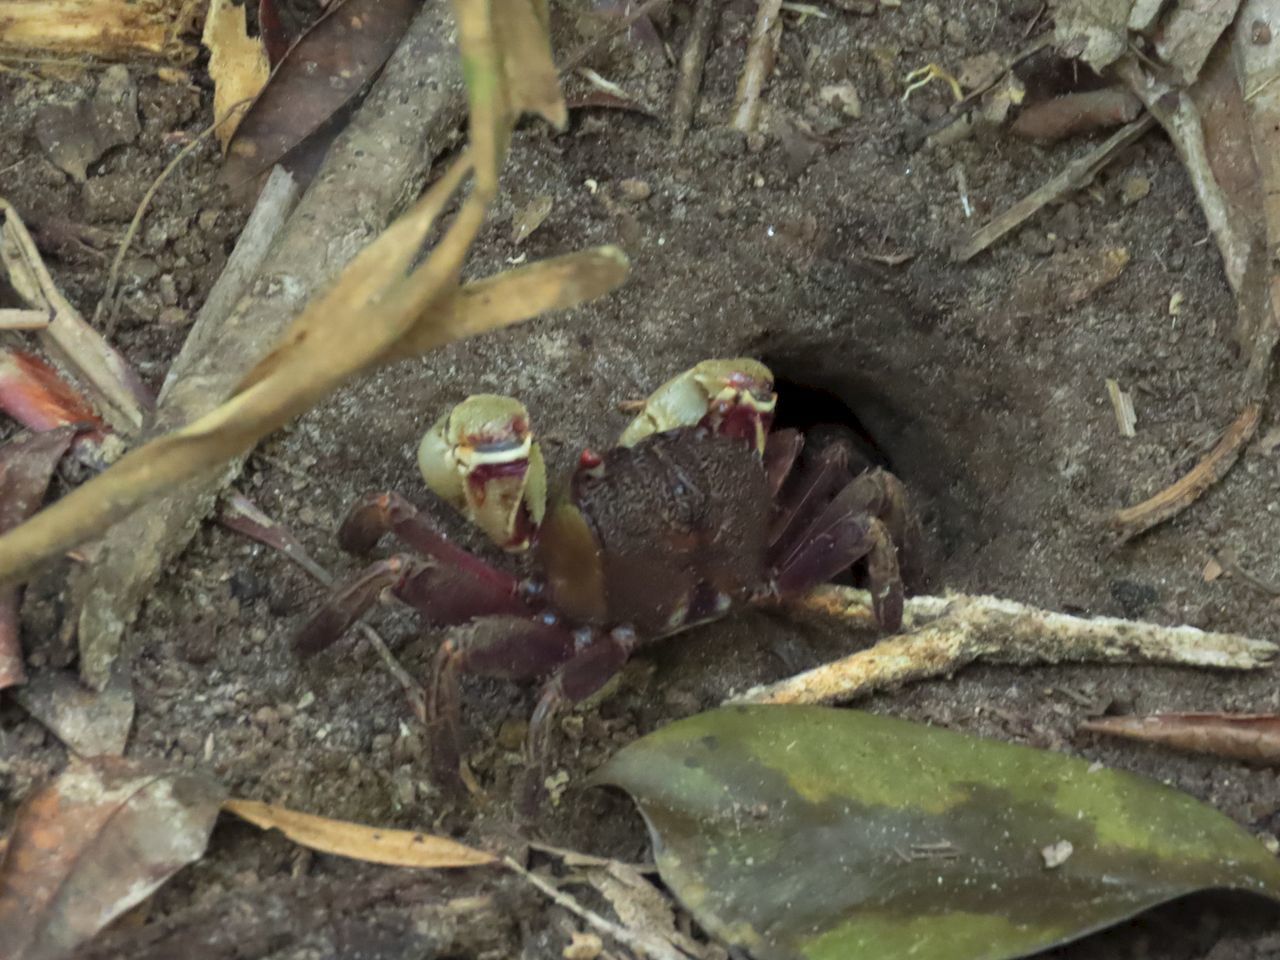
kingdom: Animalia
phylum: Arthropoda
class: Malacostraca
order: Decapoda
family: Sesarmidae
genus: Tiomanium
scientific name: Tiomanium indicum
